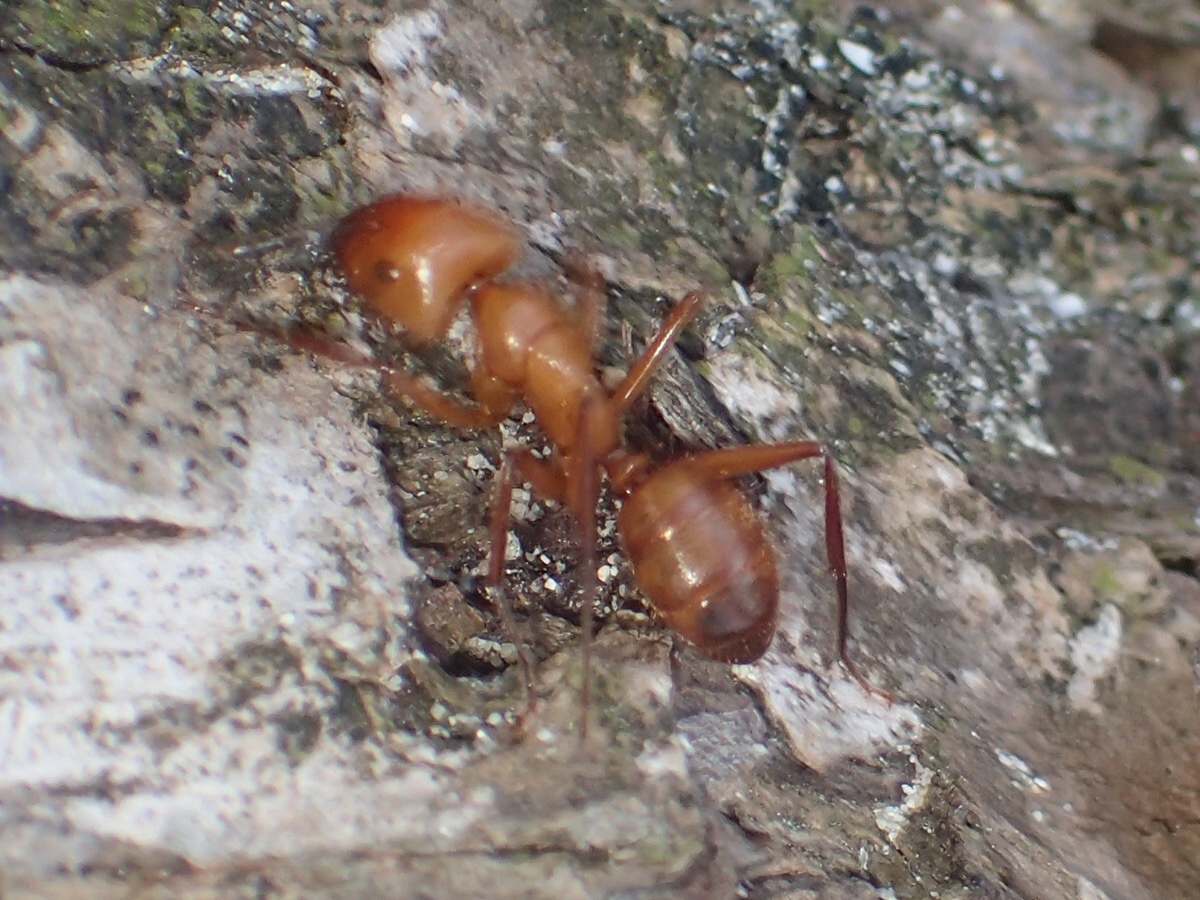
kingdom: Animalia
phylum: Arthropoda
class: Insecta
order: Hymenoptera
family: Formicidae
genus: Camponotus
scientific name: Camponotus hannani
